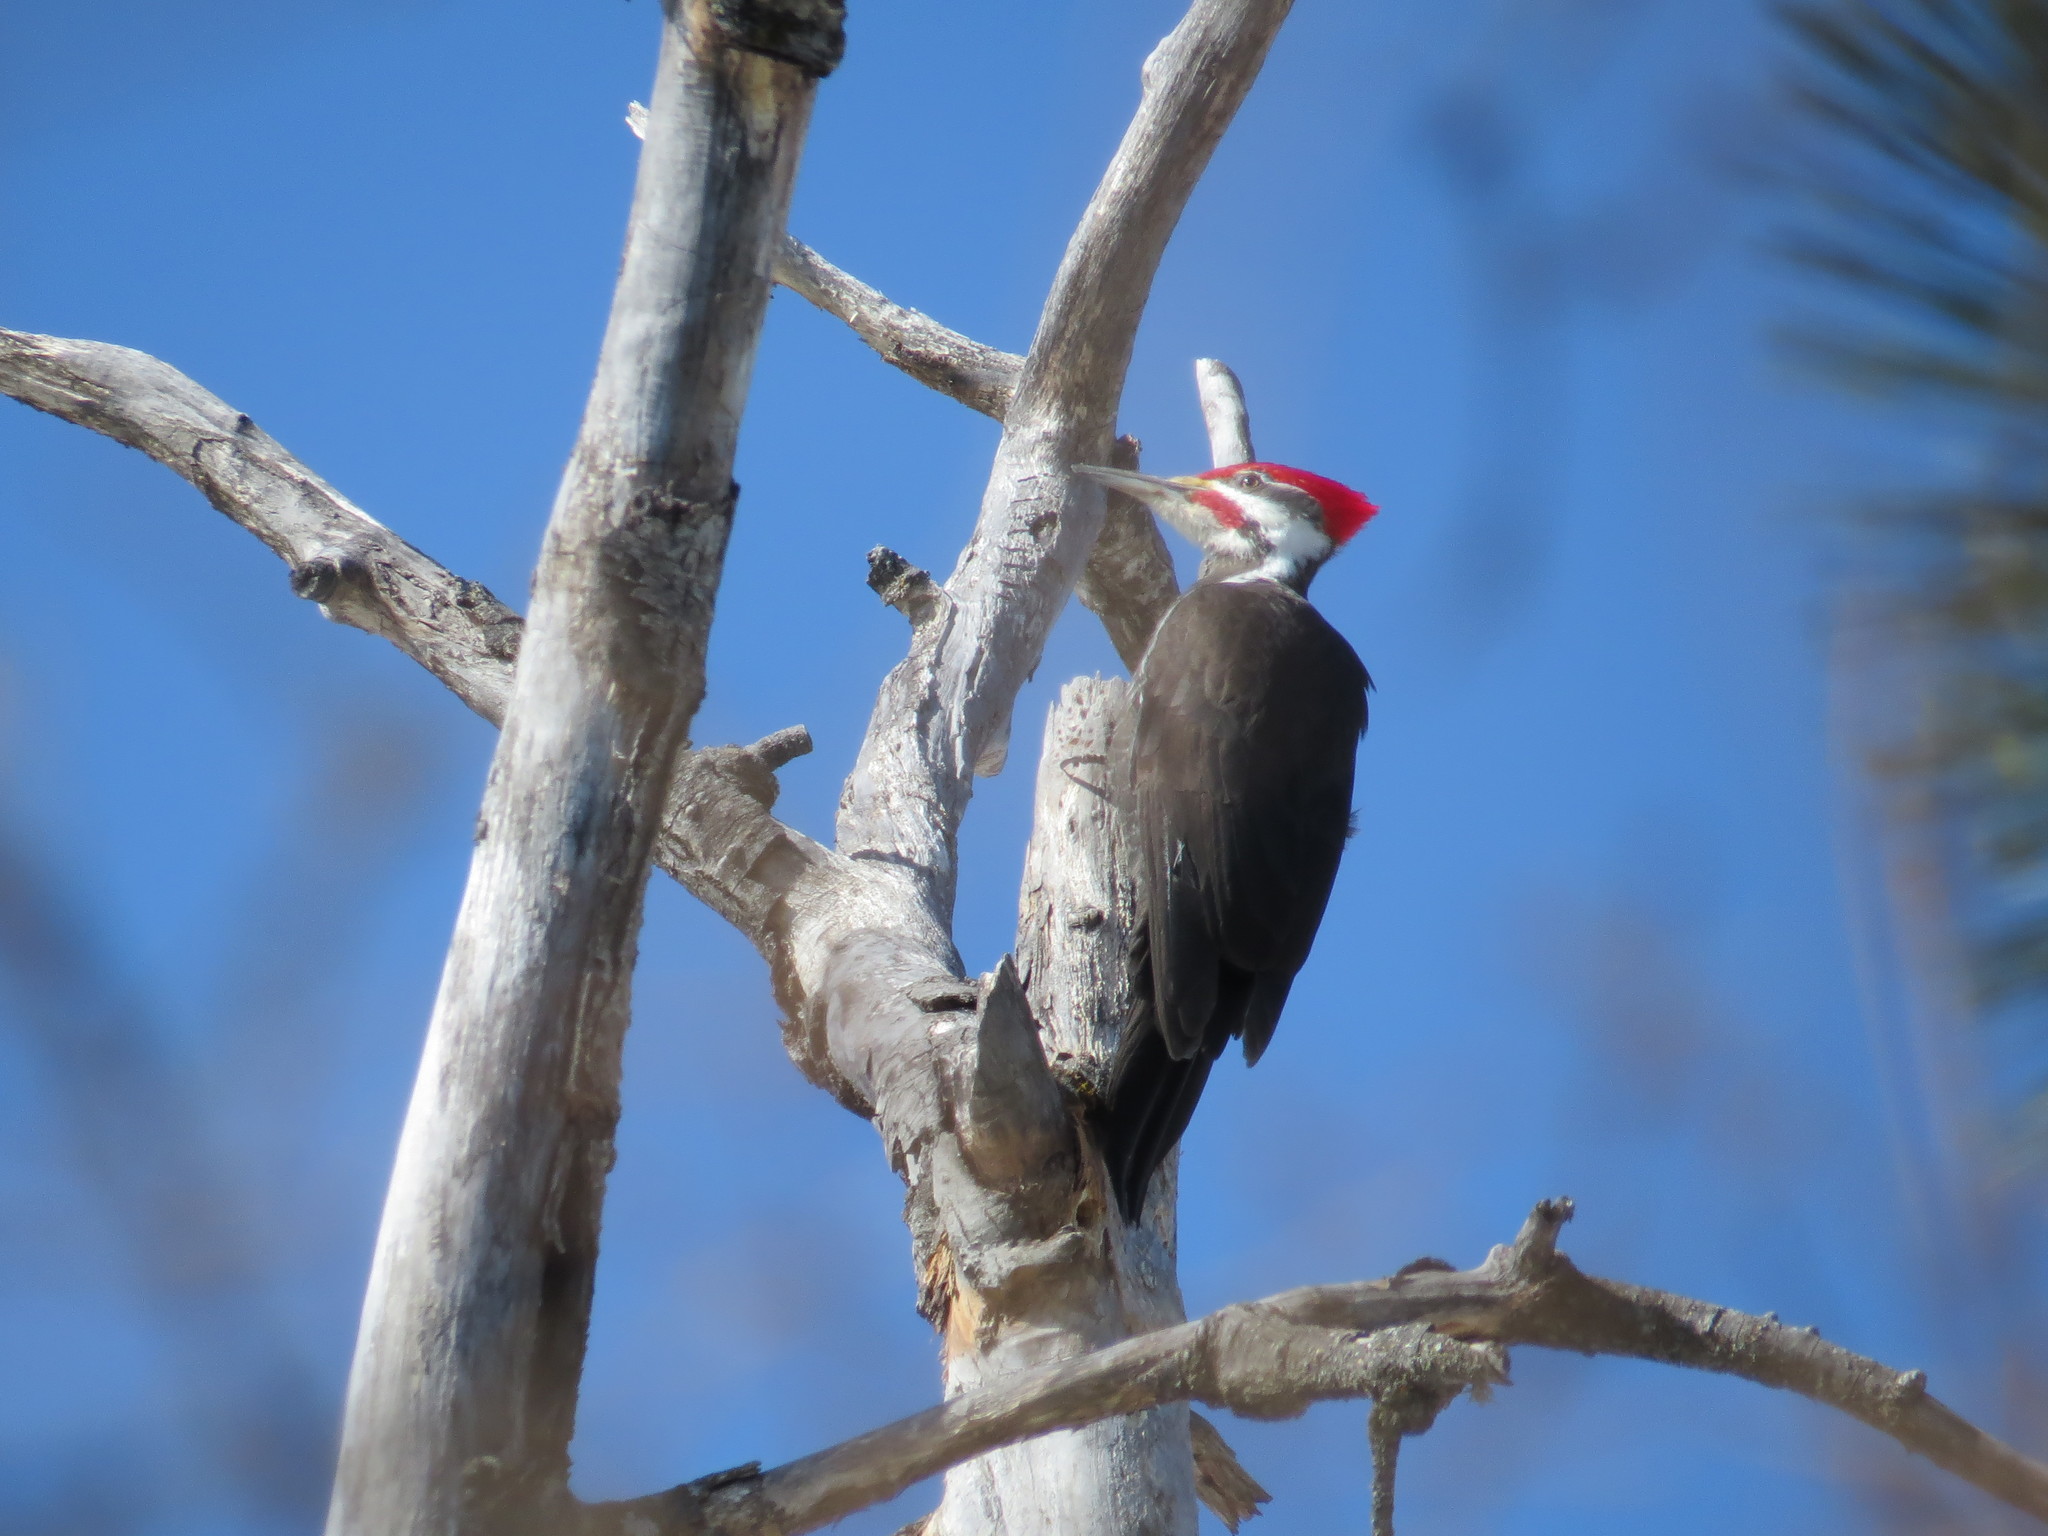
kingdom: Animalia
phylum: Chordata
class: Aves
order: Piciformes
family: Picidae
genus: Dryocopus
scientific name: Dryocopus pileatus
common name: Pileated woodpecker
